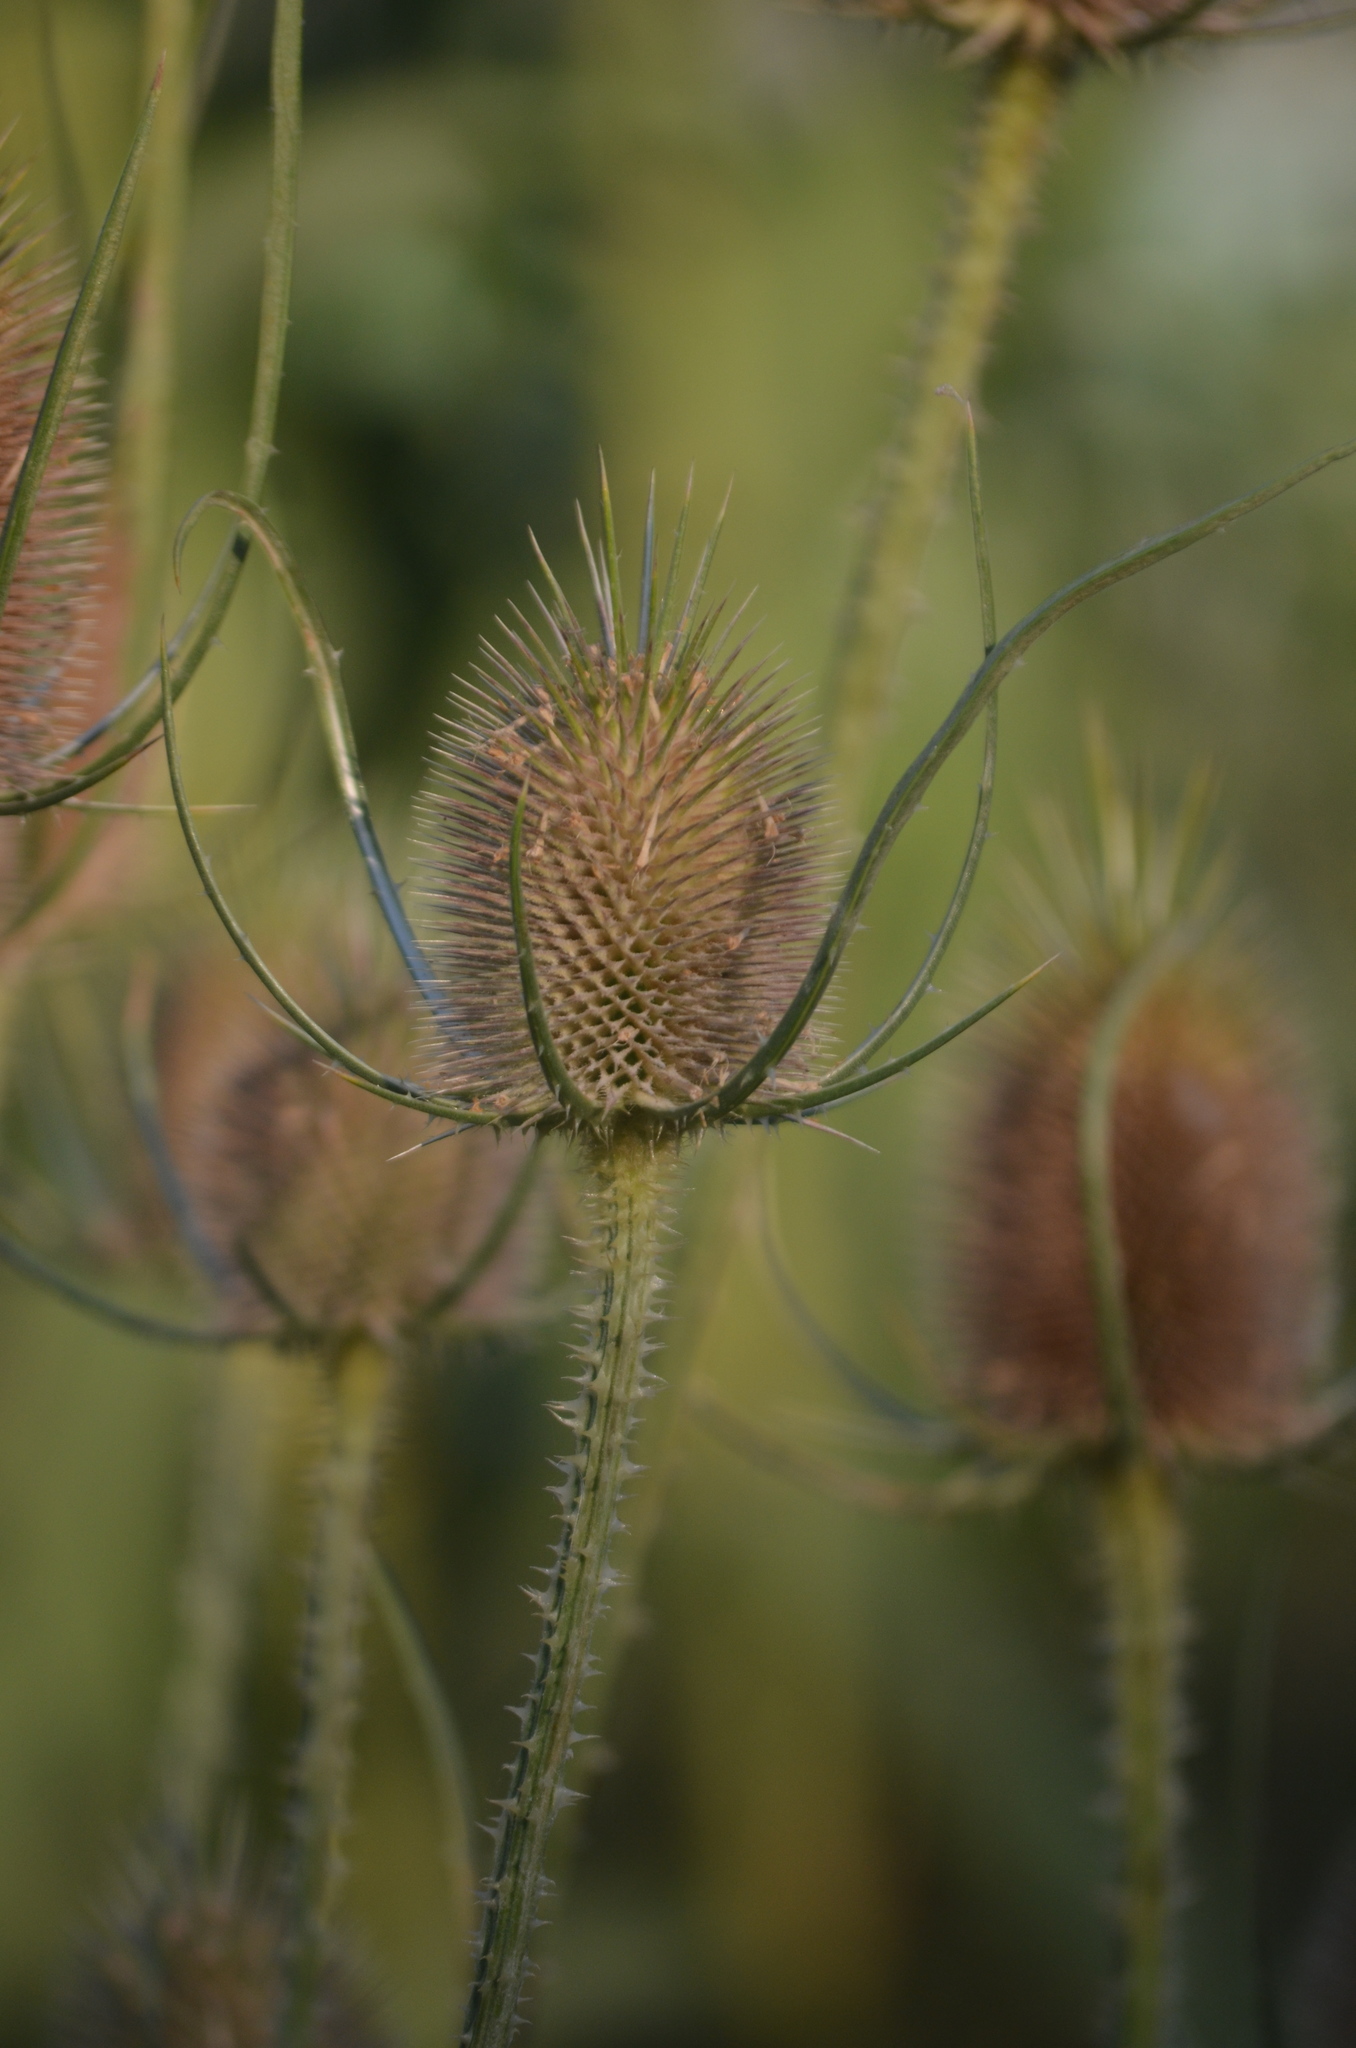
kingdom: Plantae
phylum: Tracheophyta
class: Magnoliopsida
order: Dipsacales
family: Caprifoliaceae
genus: Dipsacus
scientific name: Dipsacus fullonum
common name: Teasel
